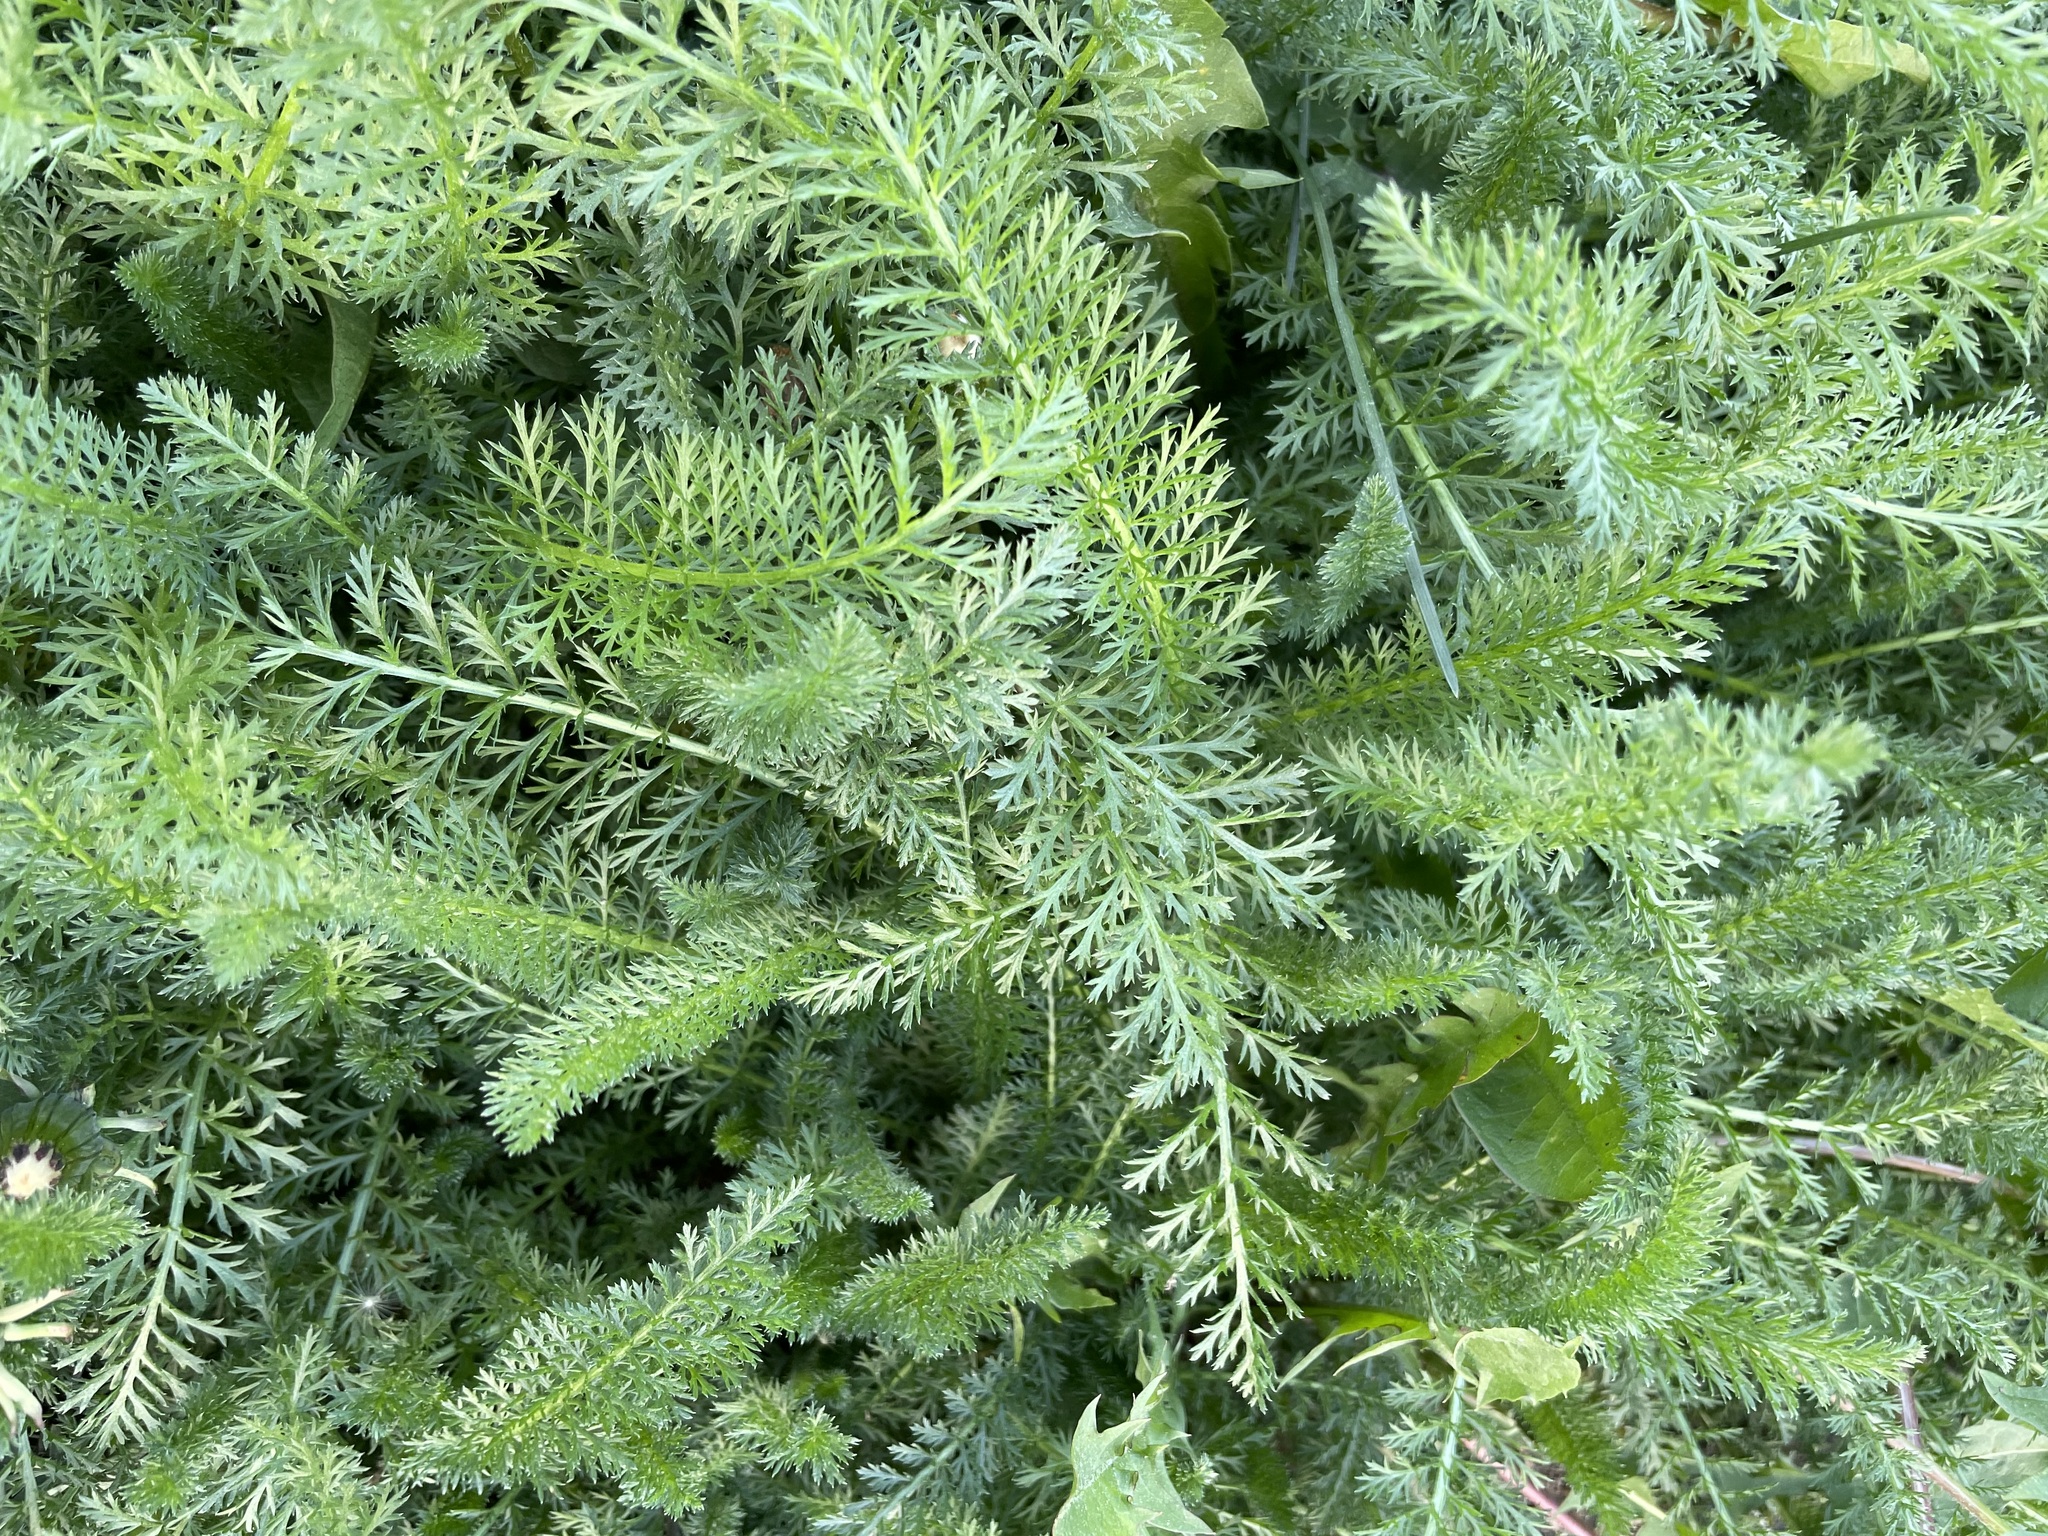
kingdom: Plantae
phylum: Tracheophyta
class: Magnoliopsida
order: Asterales
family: Asteraceae
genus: Achillea
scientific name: Achillea millefolium
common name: Yarrow
